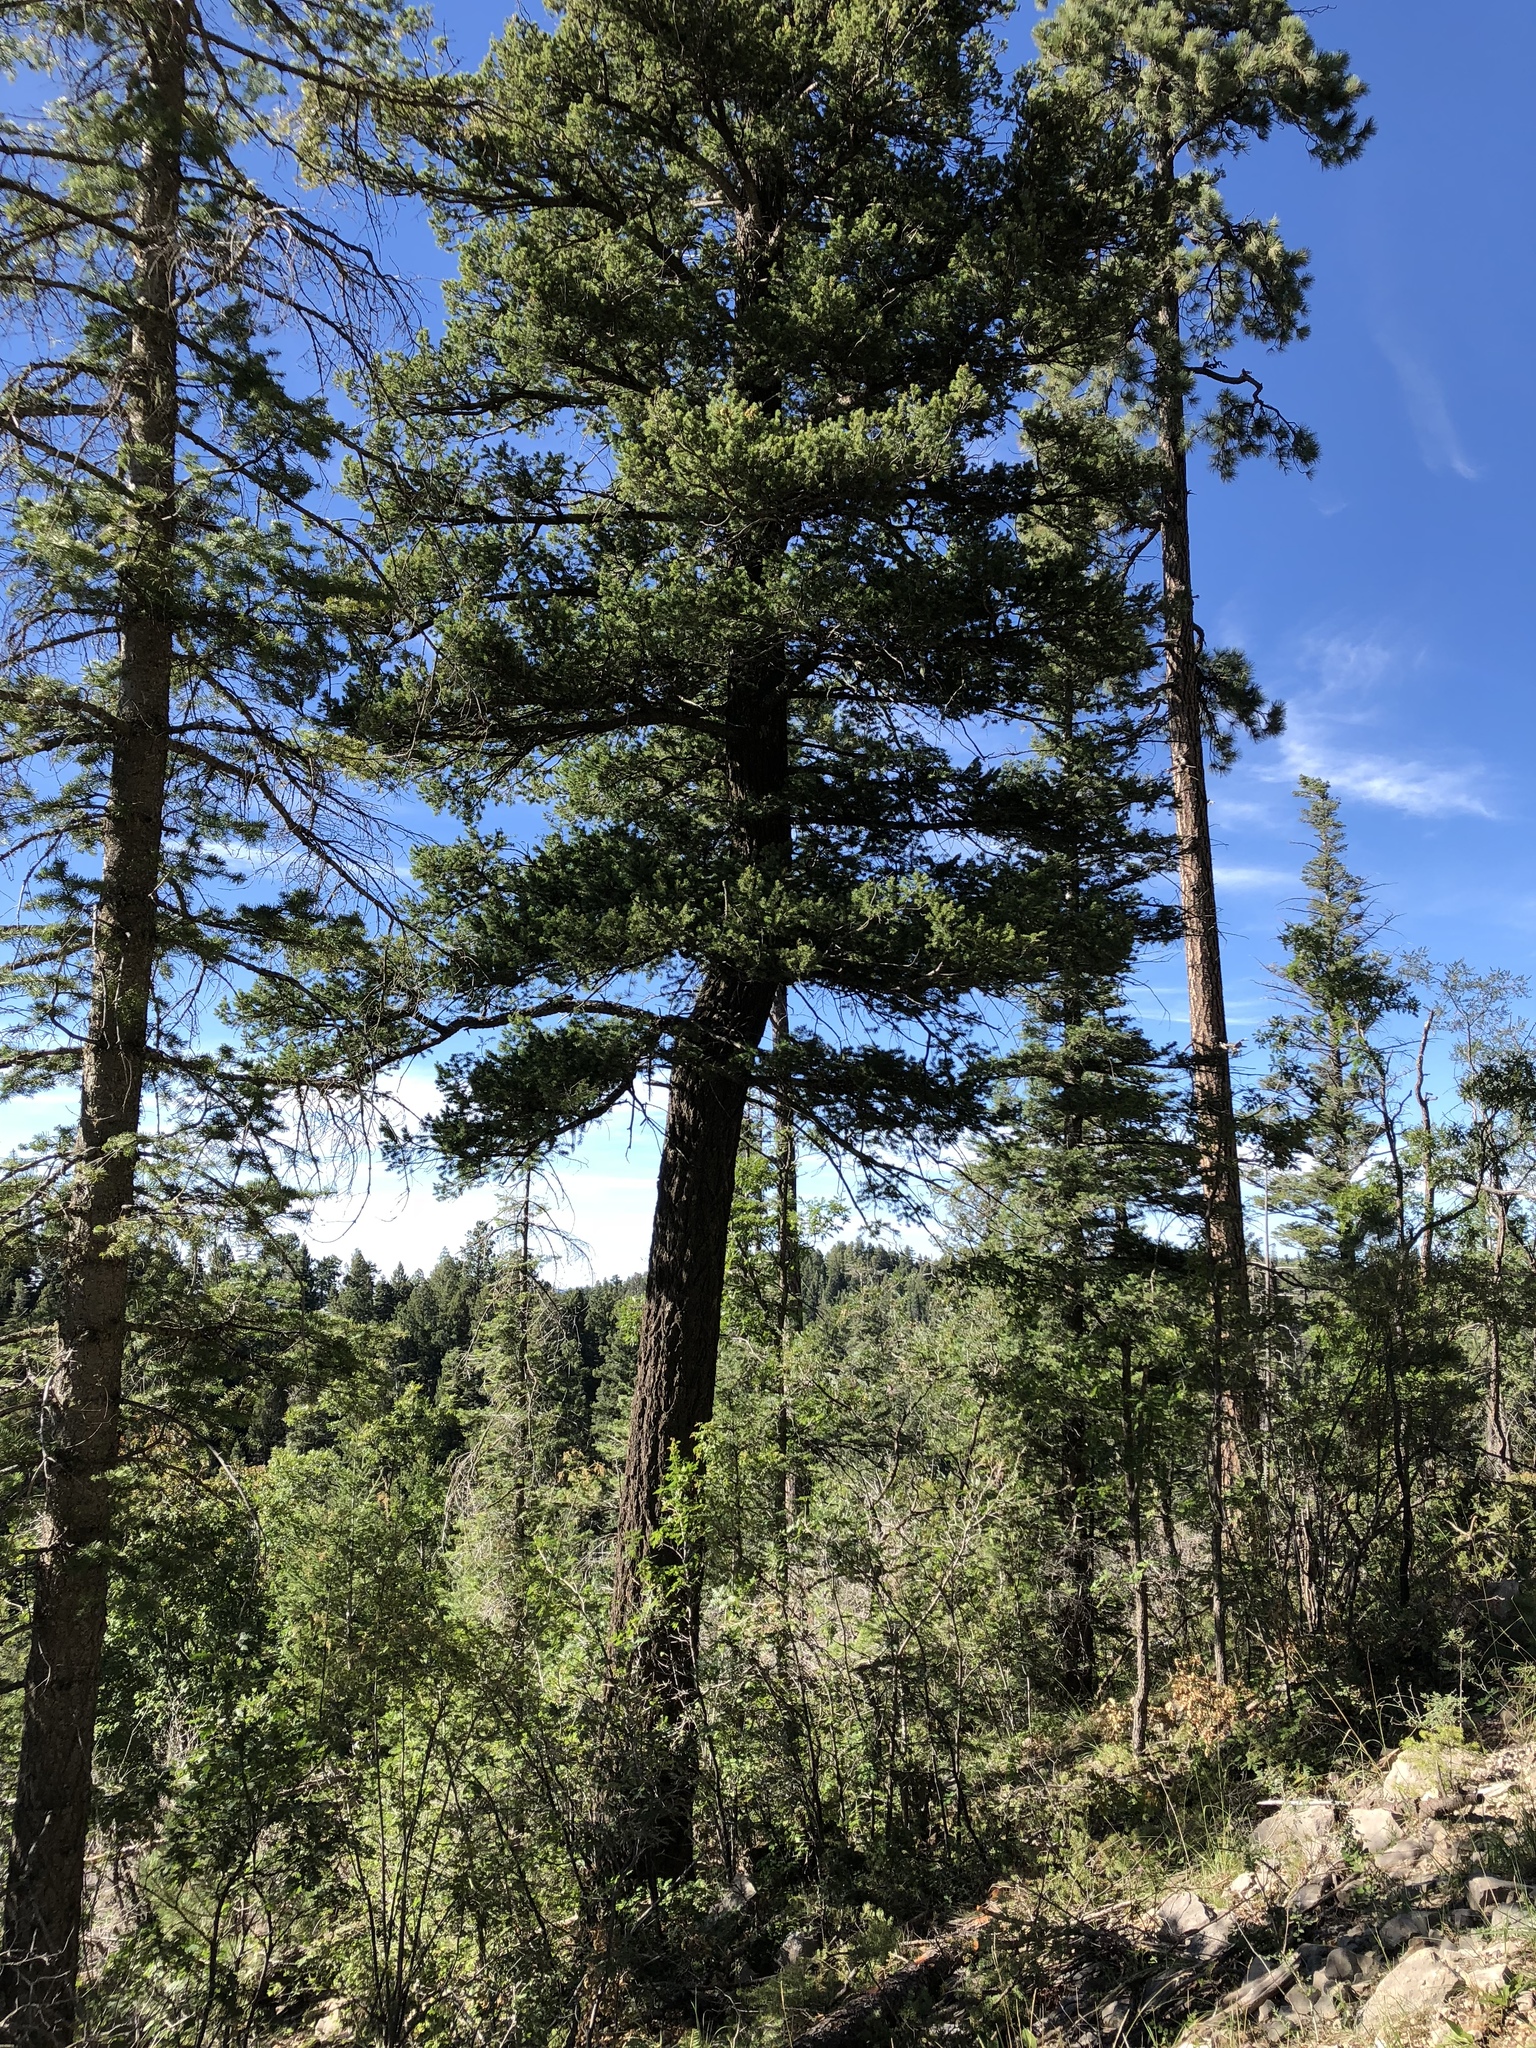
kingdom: Plantae
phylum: Tracheophyta
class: Pinopsida
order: Pinales
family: Pinaceae
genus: Pseudotsuga
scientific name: Pseudotsuga menziesii
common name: Douglas fir
